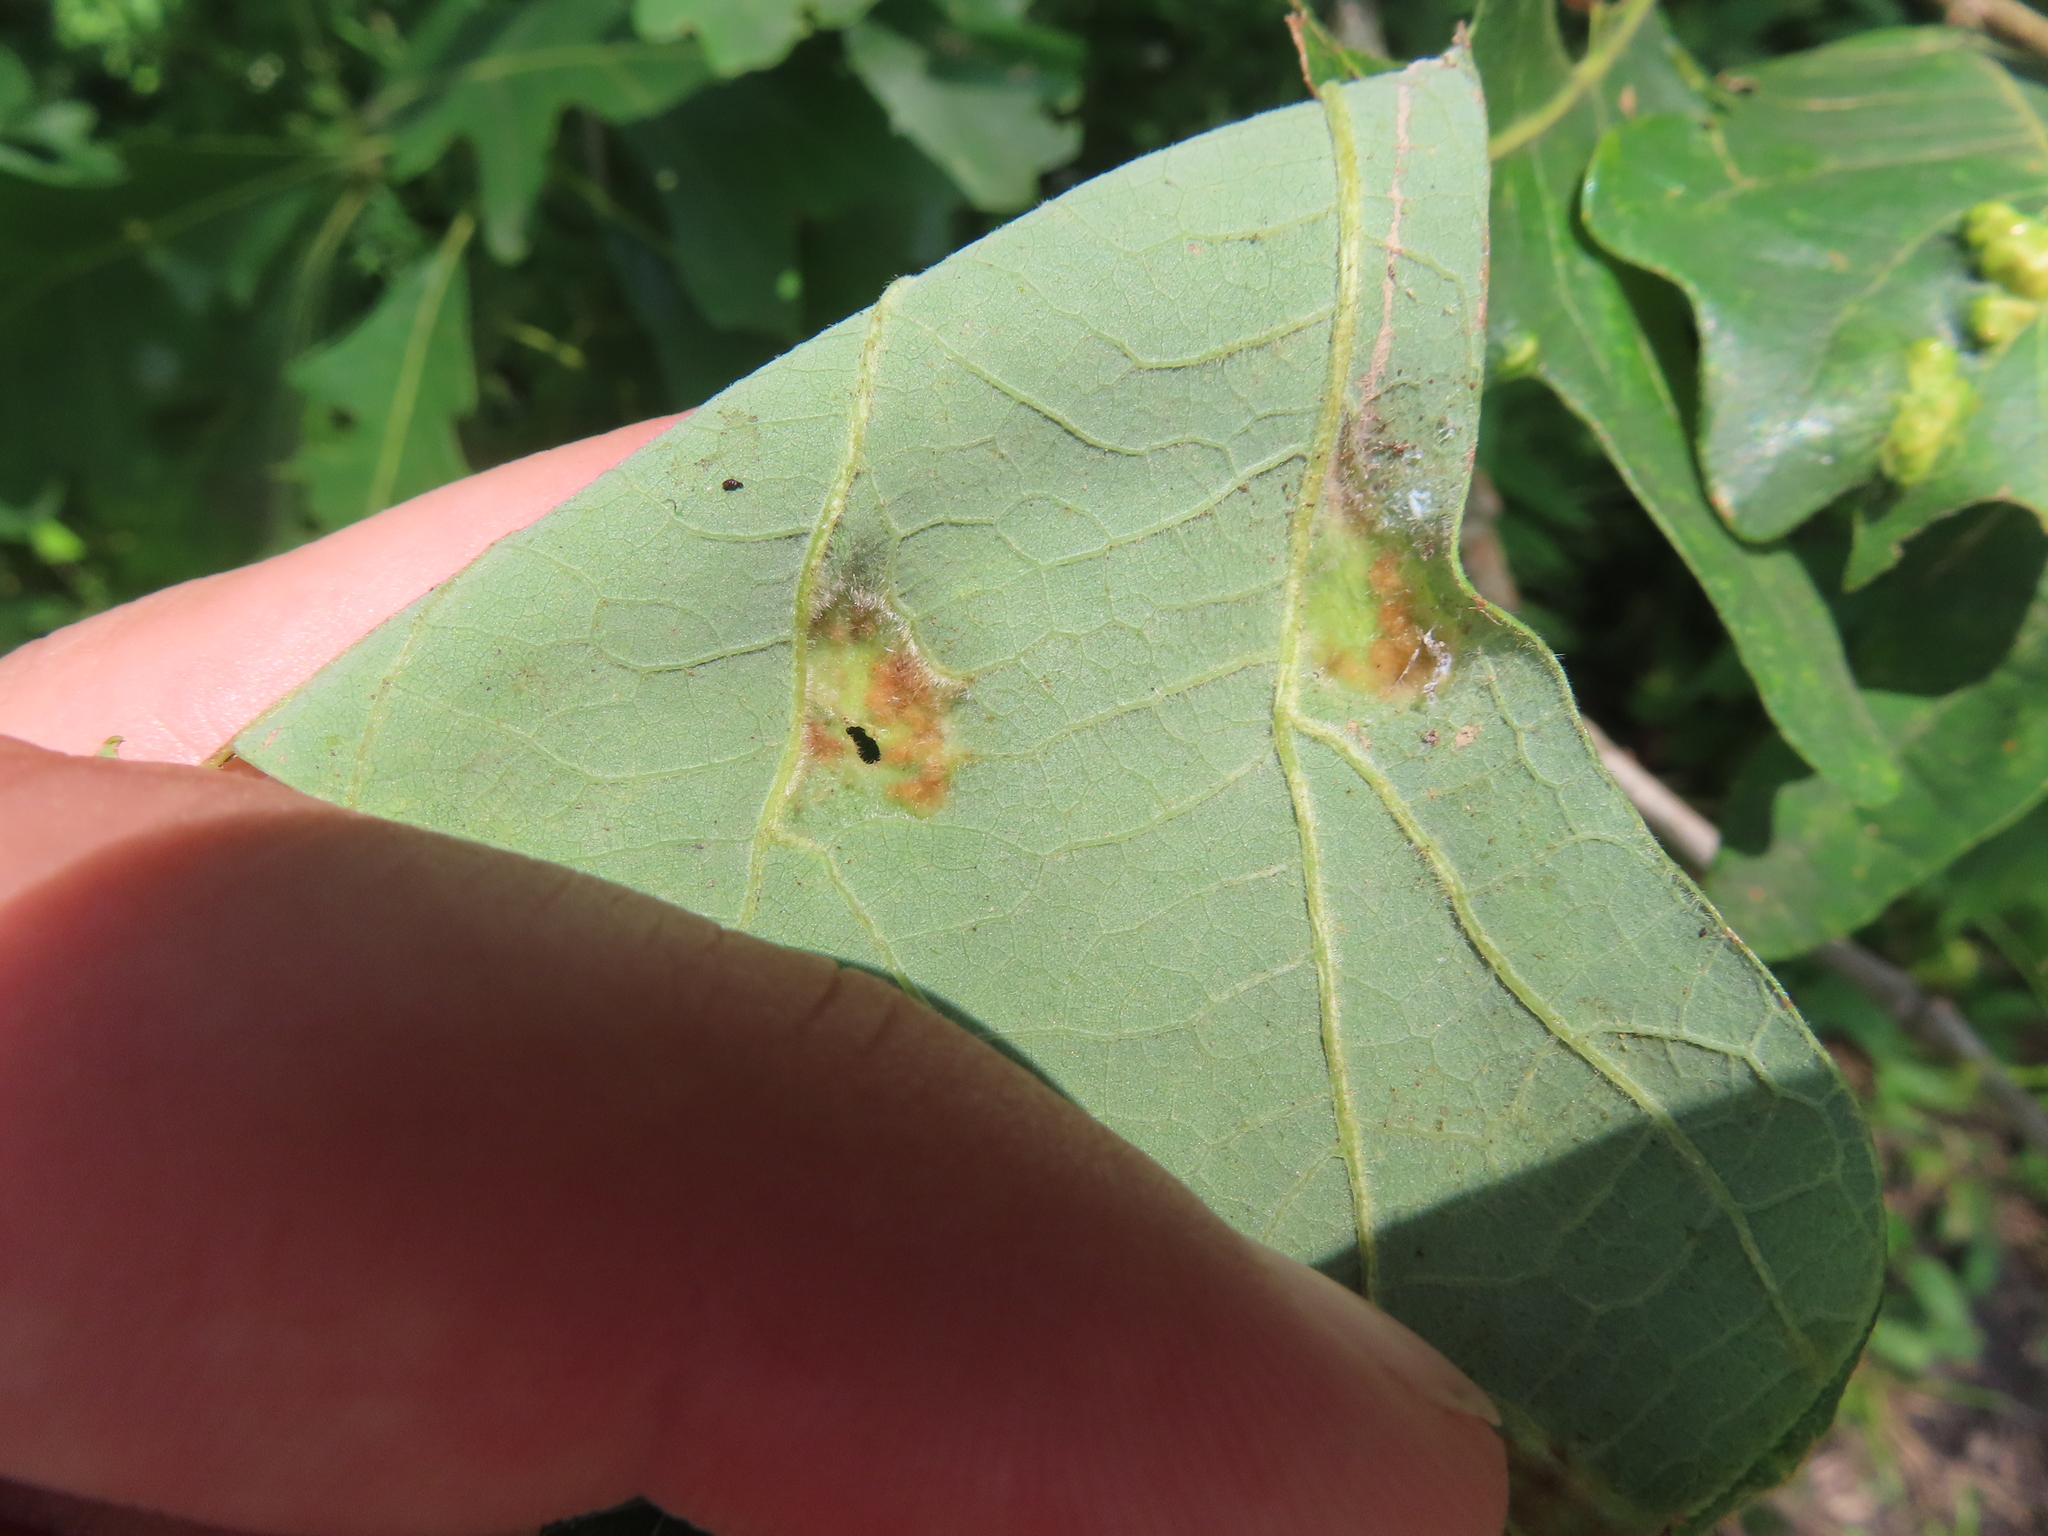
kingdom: Animalia
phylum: Arthropoda
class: Arachnida
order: Trombidiformes
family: Eriophyidae
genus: Aceria
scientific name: Aceria quercina
